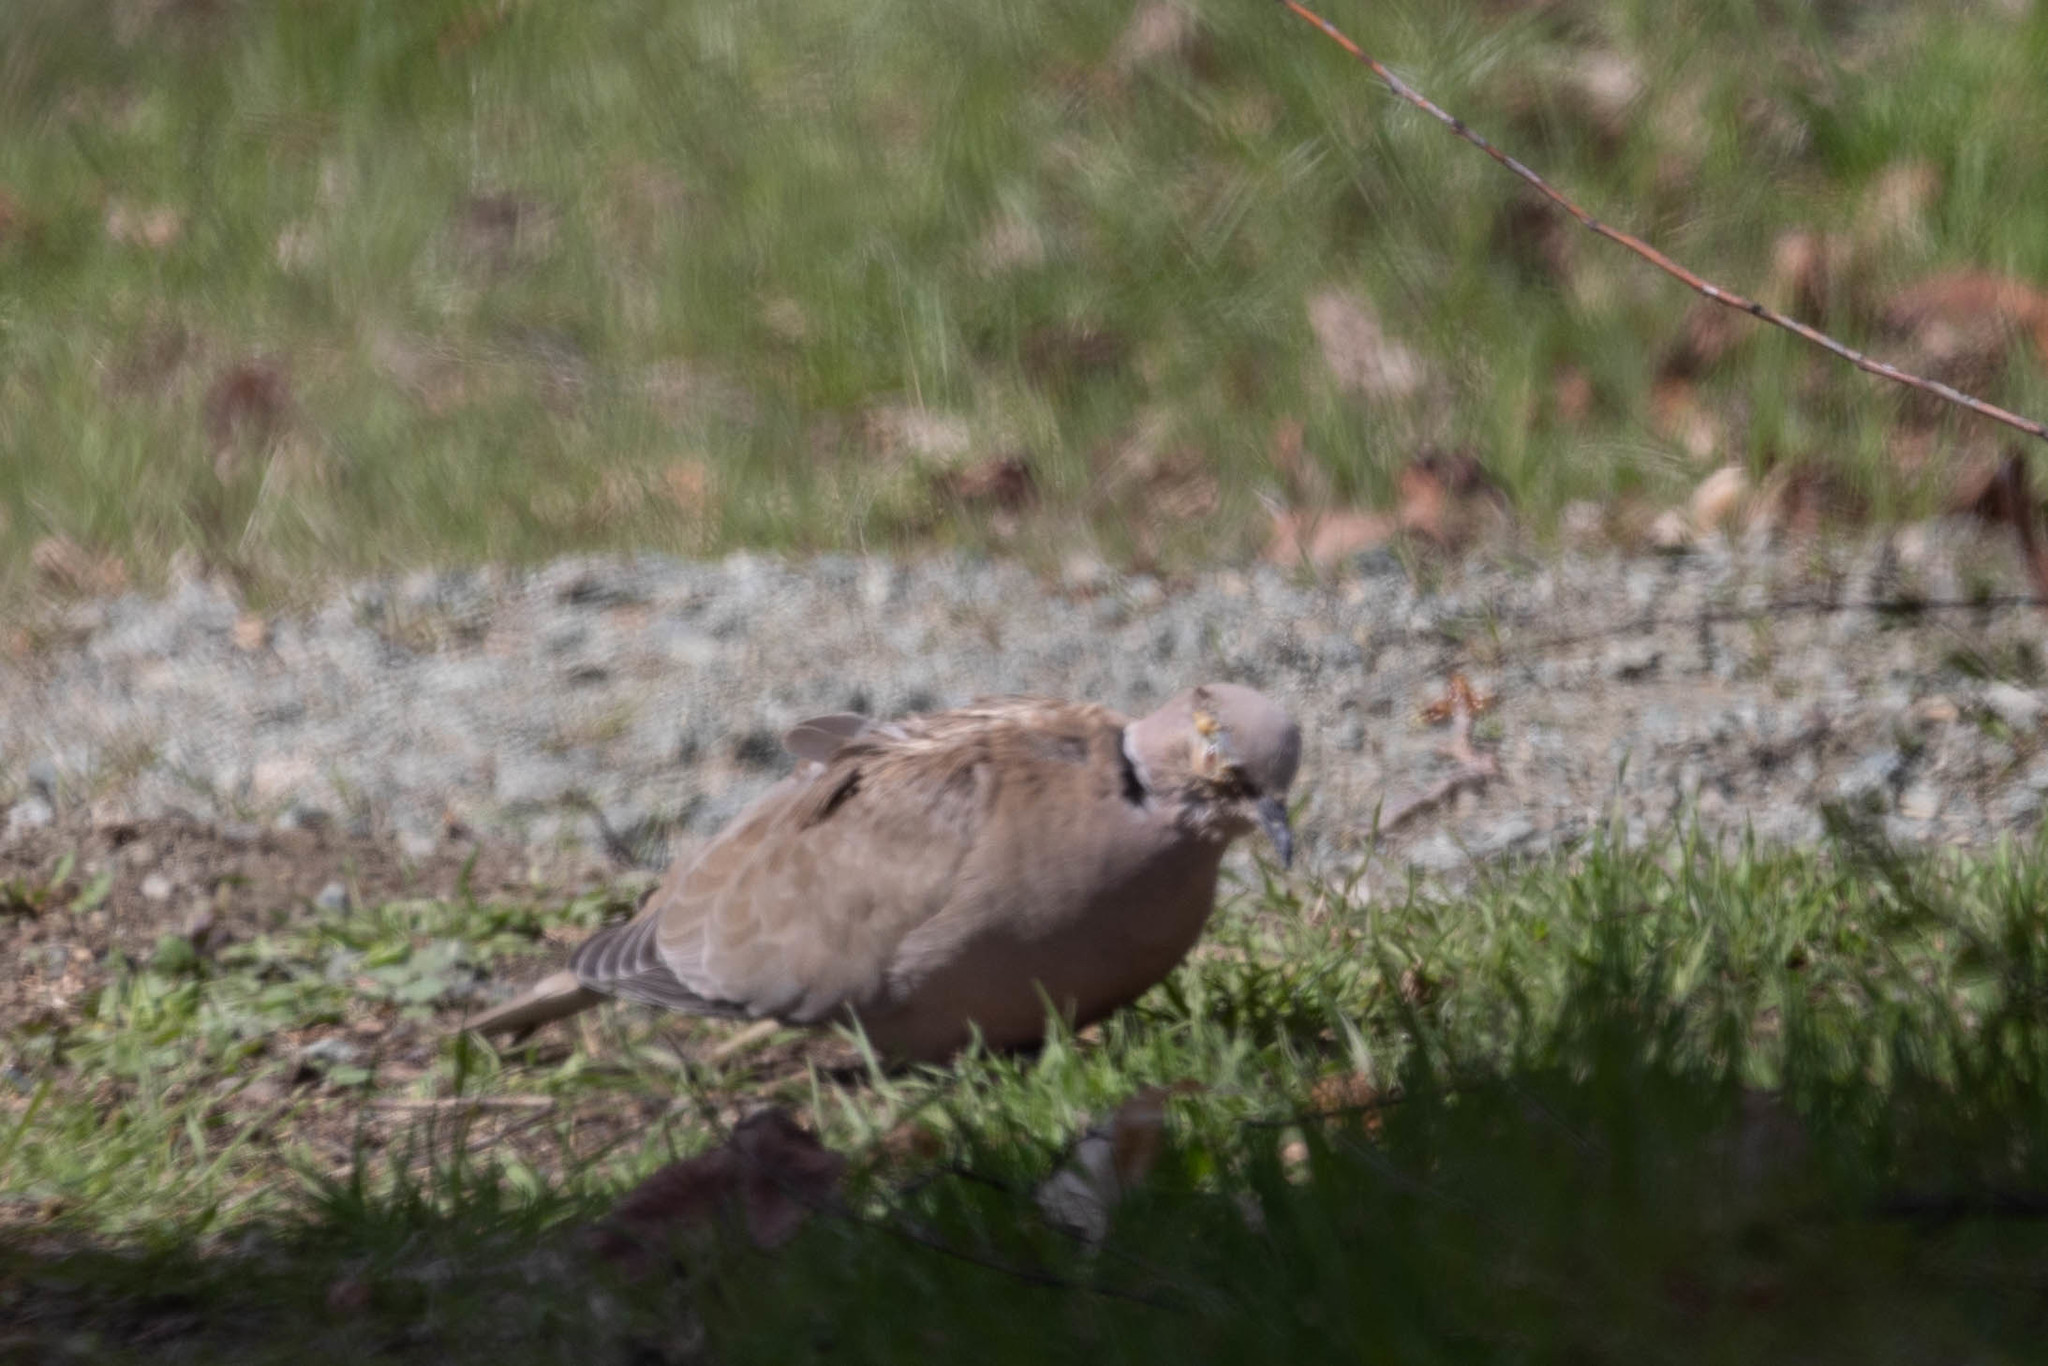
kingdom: Animalia
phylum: Chordata
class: Aves
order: Columbiformes
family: Columbidae
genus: Streptopelia
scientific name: Streptopelia decaocto
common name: Eurasian collared dove
